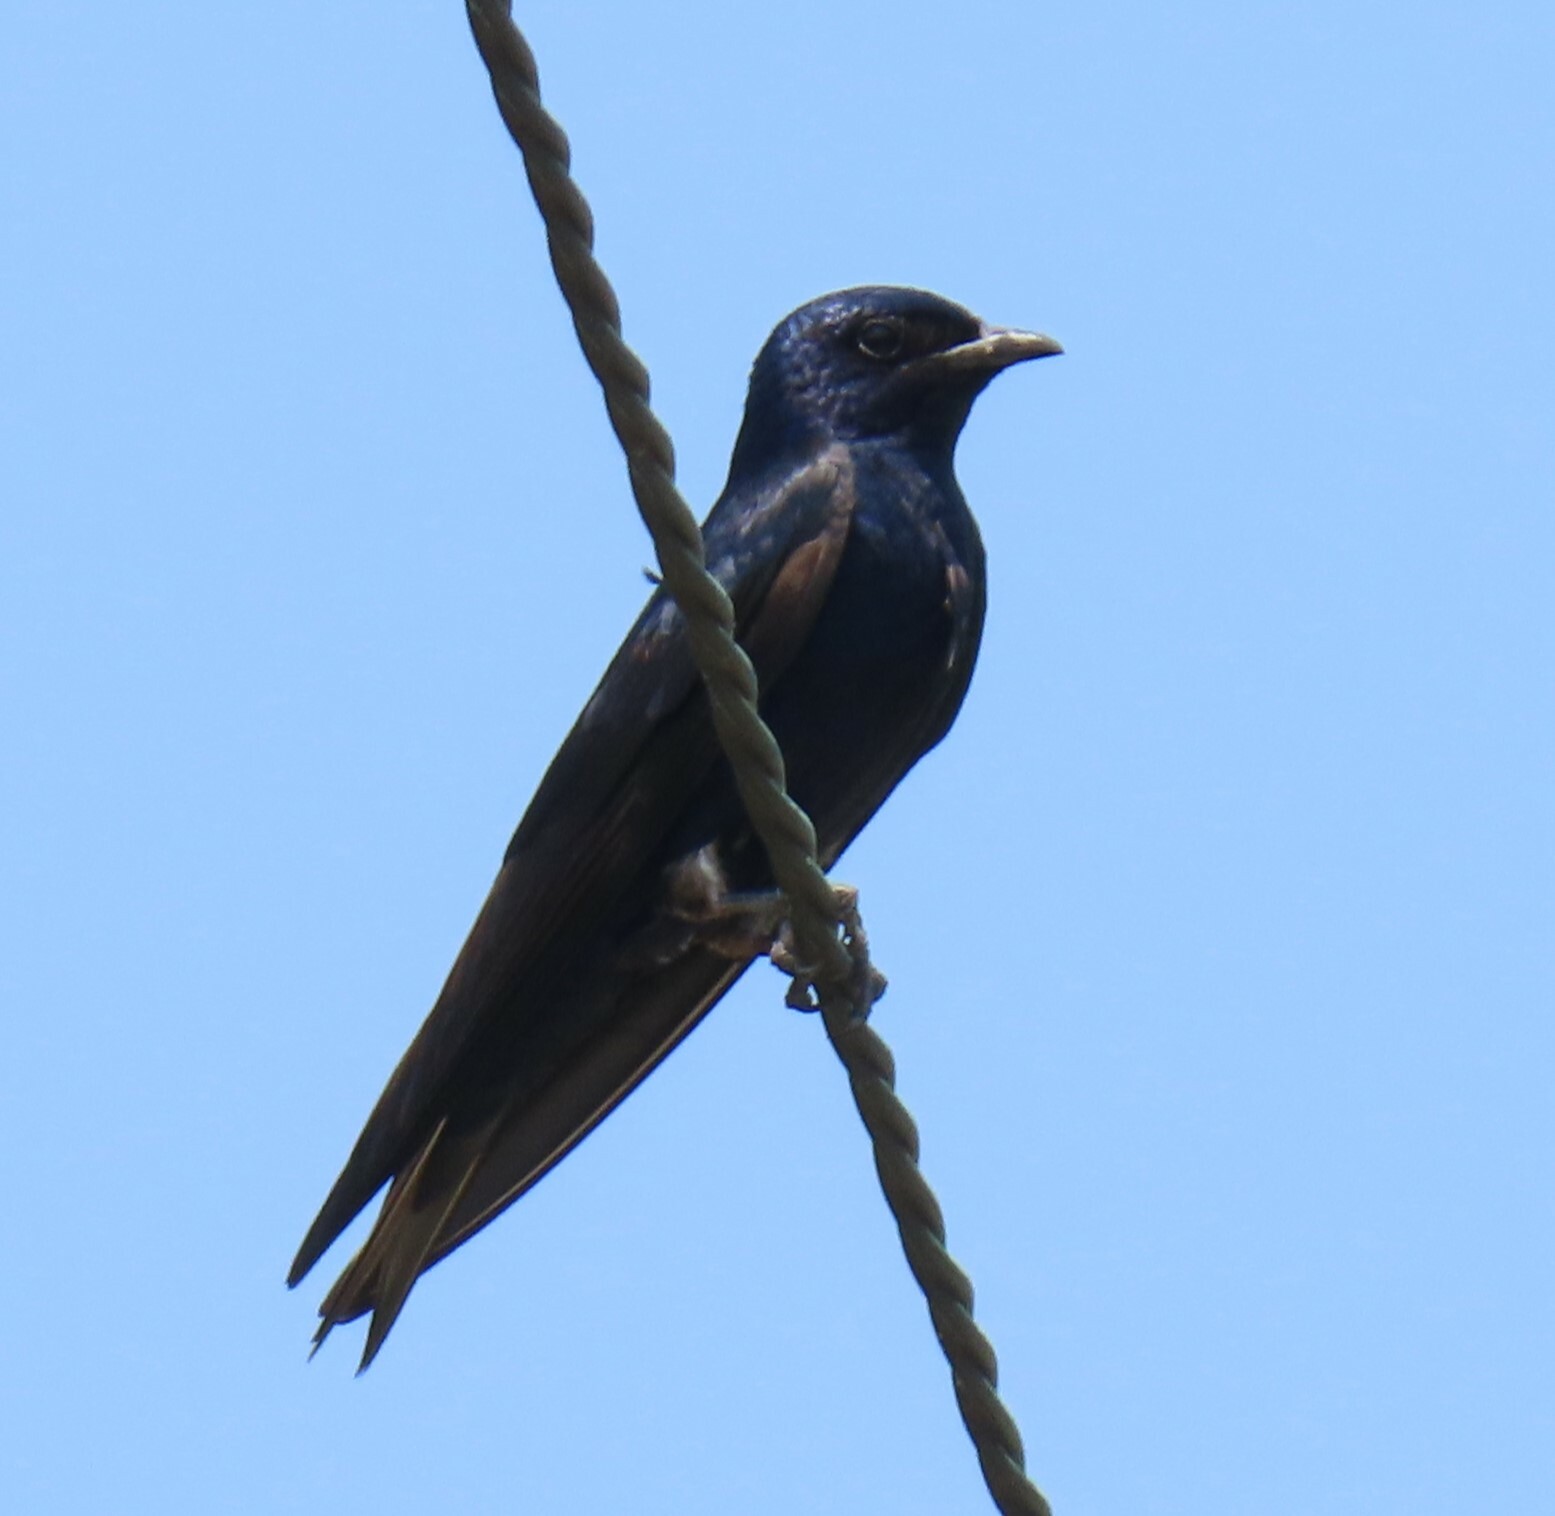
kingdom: Animalia
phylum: Chordata
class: Aves
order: Passeriformes
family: Hirundinidae
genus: Progne
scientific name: Progne subis
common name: Purple martin
